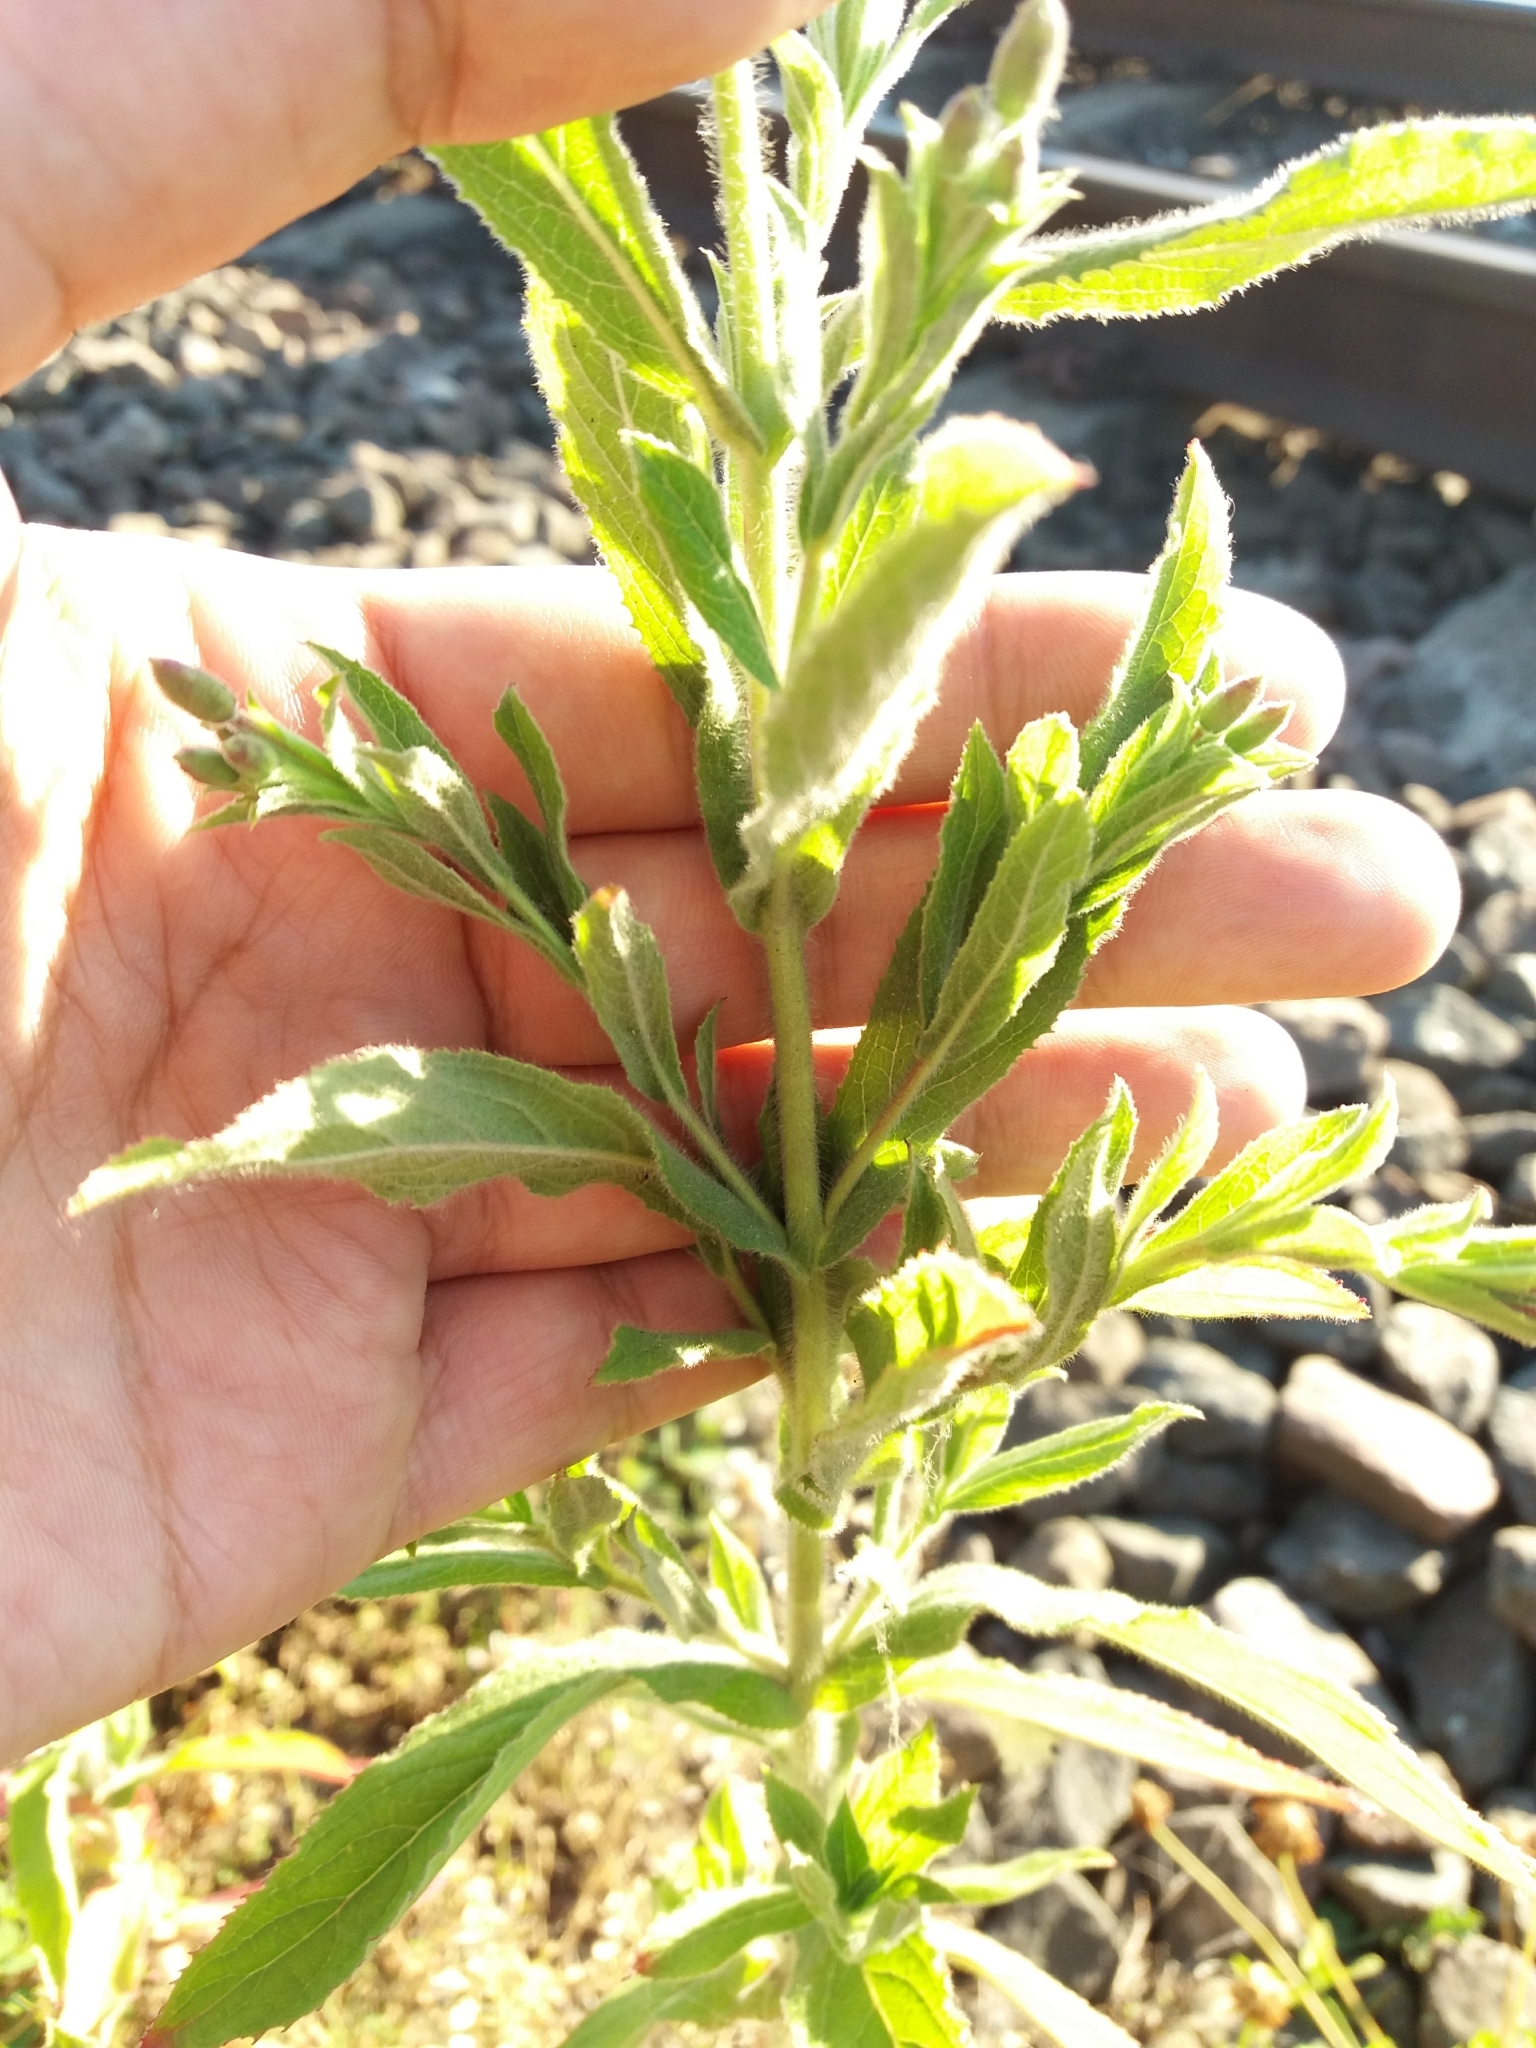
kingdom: Plantae
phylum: Tracheophyta
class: Magnoliopsida
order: Myrtales
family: Onagraceae
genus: Epilobium
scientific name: Epilobium hirsutum
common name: Great willowherb
